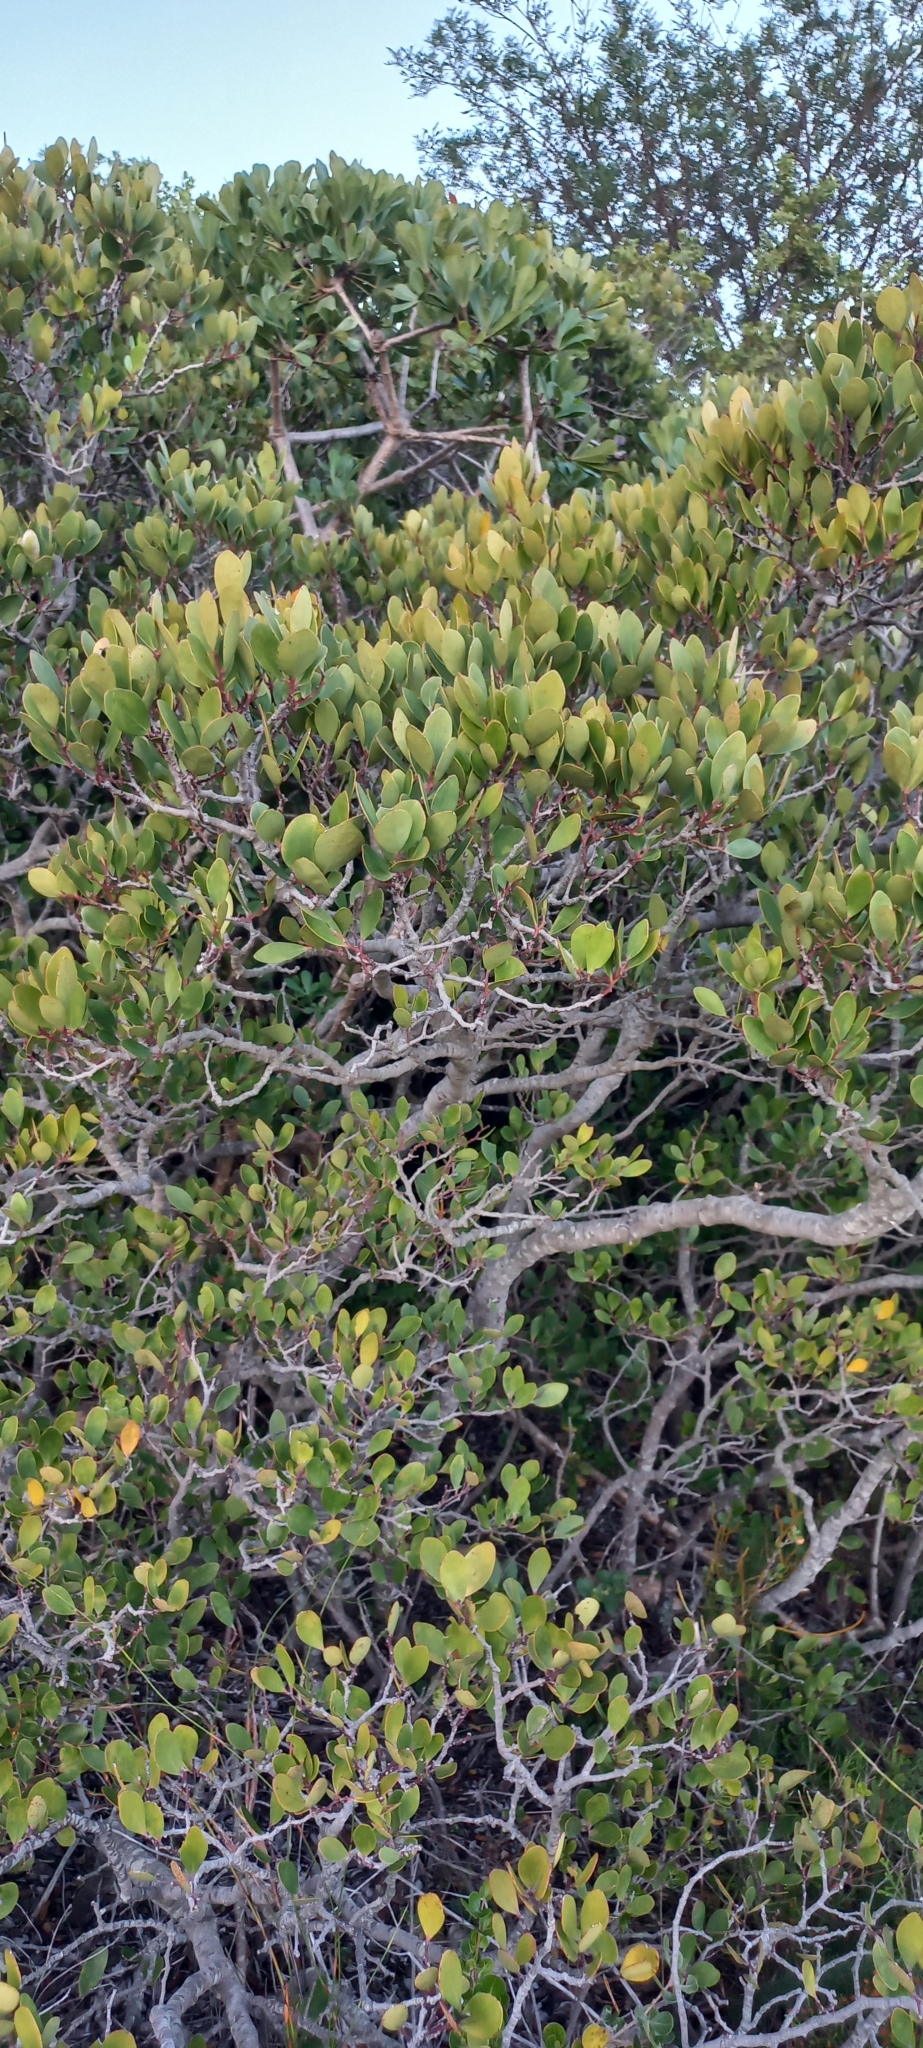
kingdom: Plantae
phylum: Tracheophyta
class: Magnoliopsida
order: Celastrales
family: Celastraceae
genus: Pterocelastrus
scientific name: Pterocelastrus tricuspidatus
